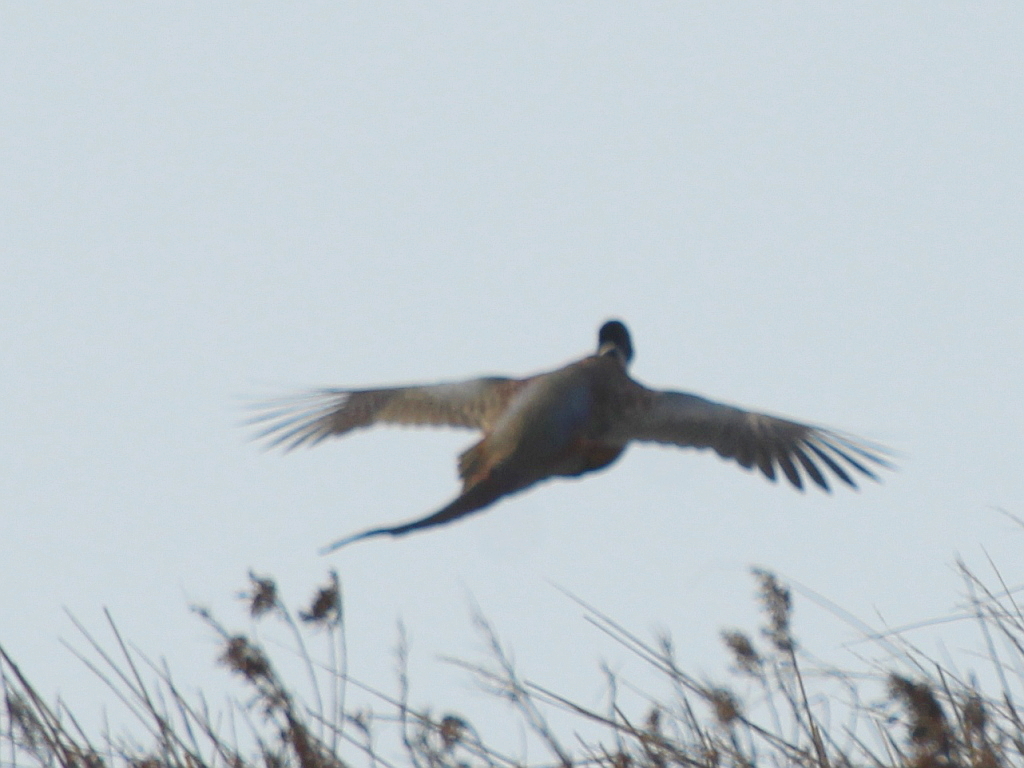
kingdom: Animalia
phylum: Chordata
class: Aves
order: Galliformes
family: Phasianidae
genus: Phasianus
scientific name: Phasianus colchicus
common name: Common pheasant
